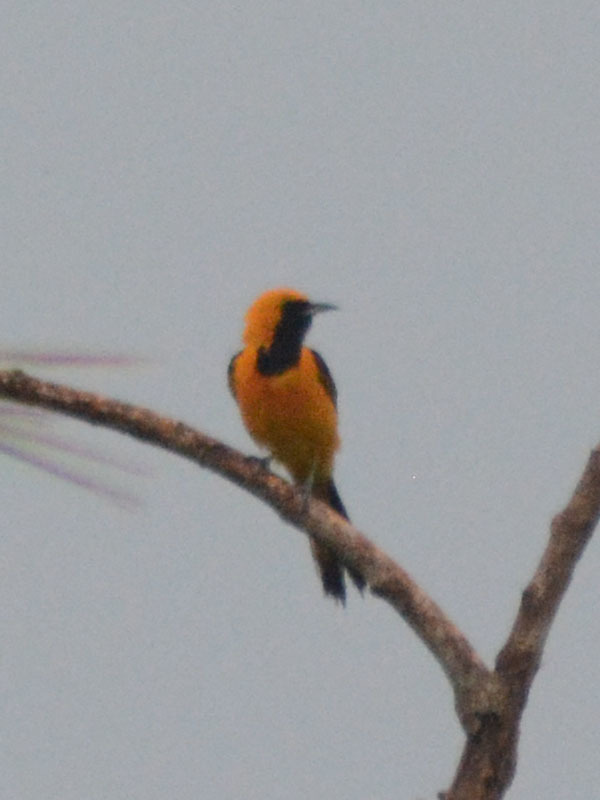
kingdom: Animalia
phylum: Chordata
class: Aves
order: Passeriformes
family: Icteridae
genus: Icterus
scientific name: Icterus cucullatus
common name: Hooded oriole
